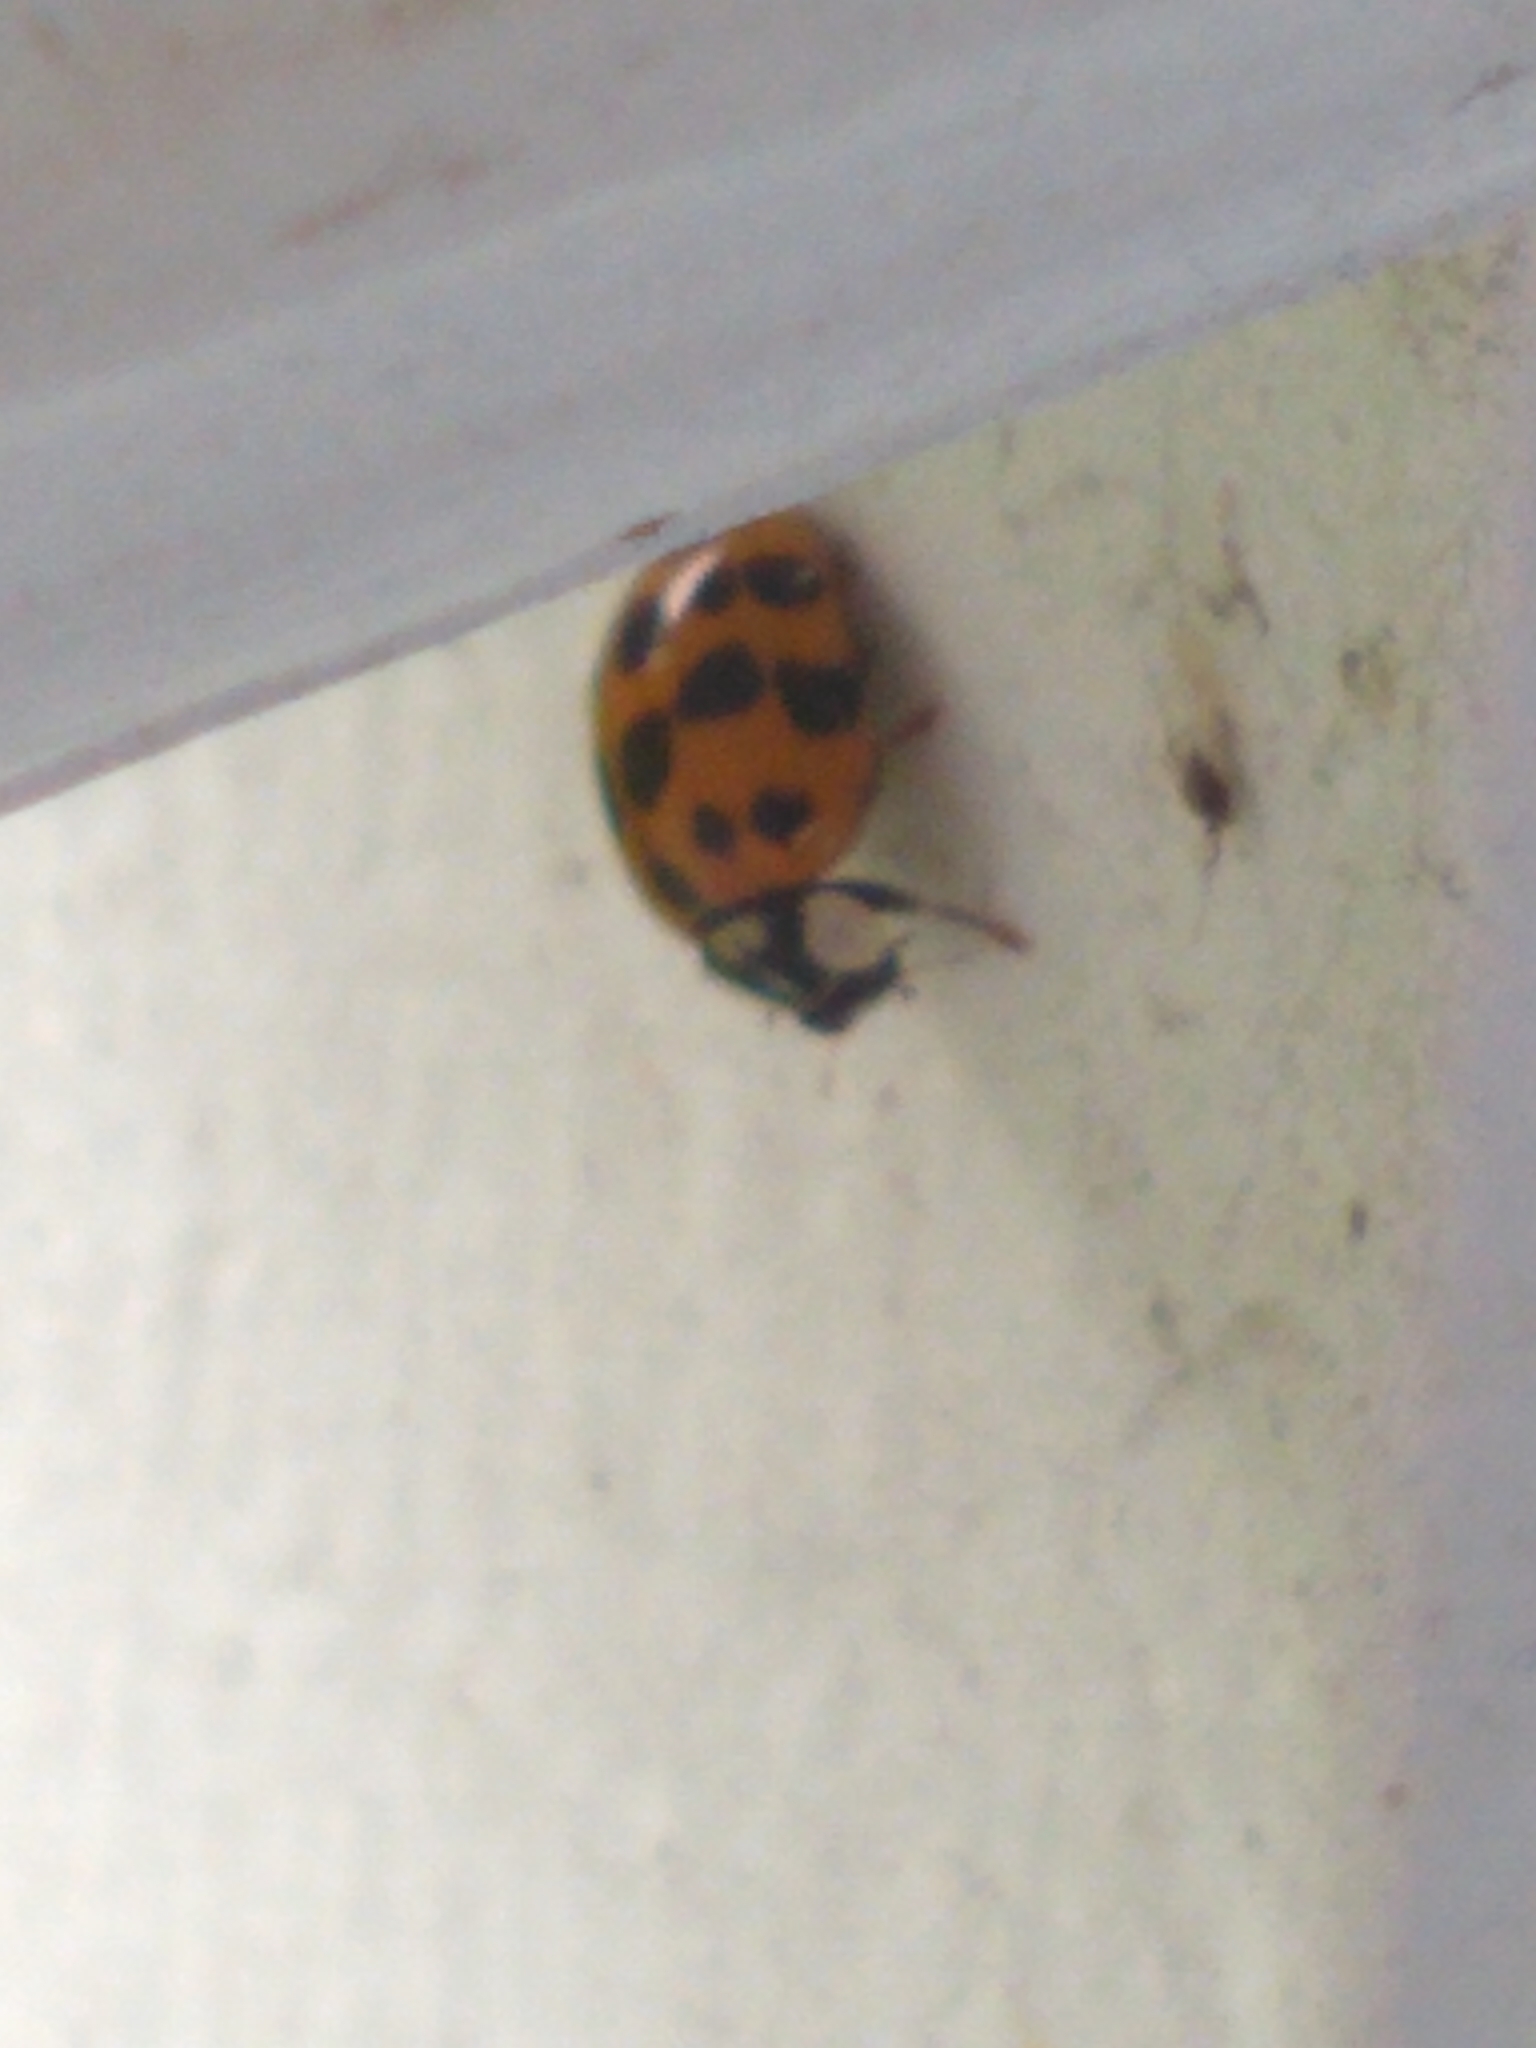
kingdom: Animalia
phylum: Arthropoda
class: Insecta
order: Coleoptera
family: Coccinellidae
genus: Harmonia
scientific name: Harmonia axyridis
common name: Harlequin ladybird
